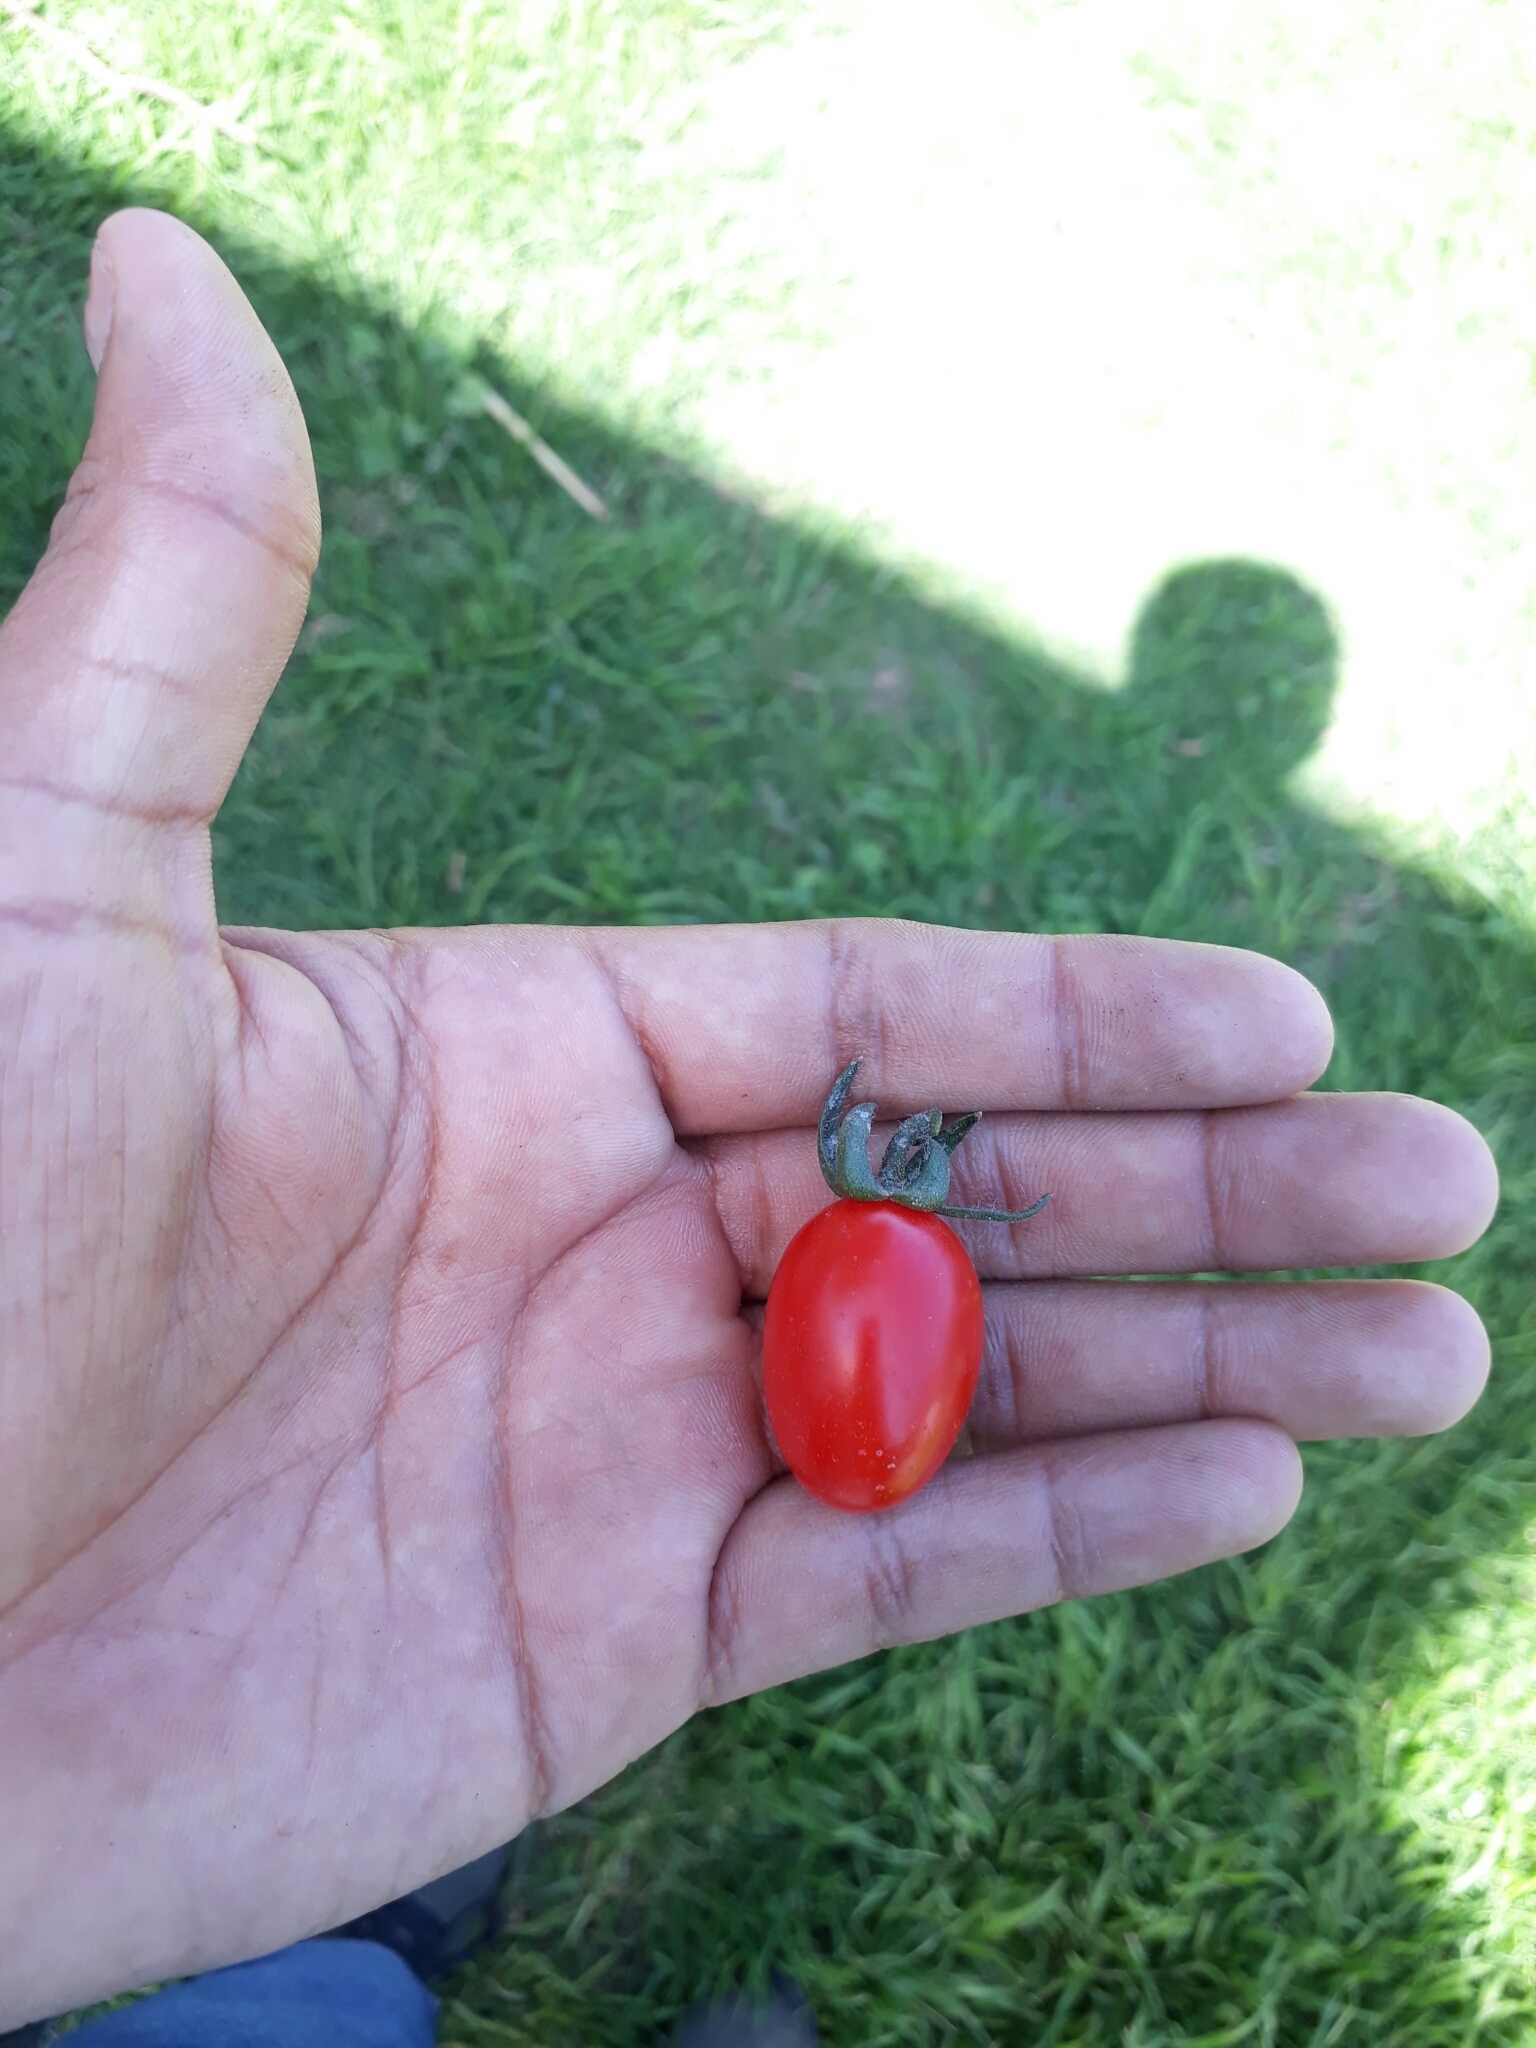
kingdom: Plantae
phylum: Tracheophyta
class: Magnoliopsida
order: Solanales
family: Solanaceae
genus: Solanum
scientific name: Solanum lycopersicum
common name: Garden tomato
